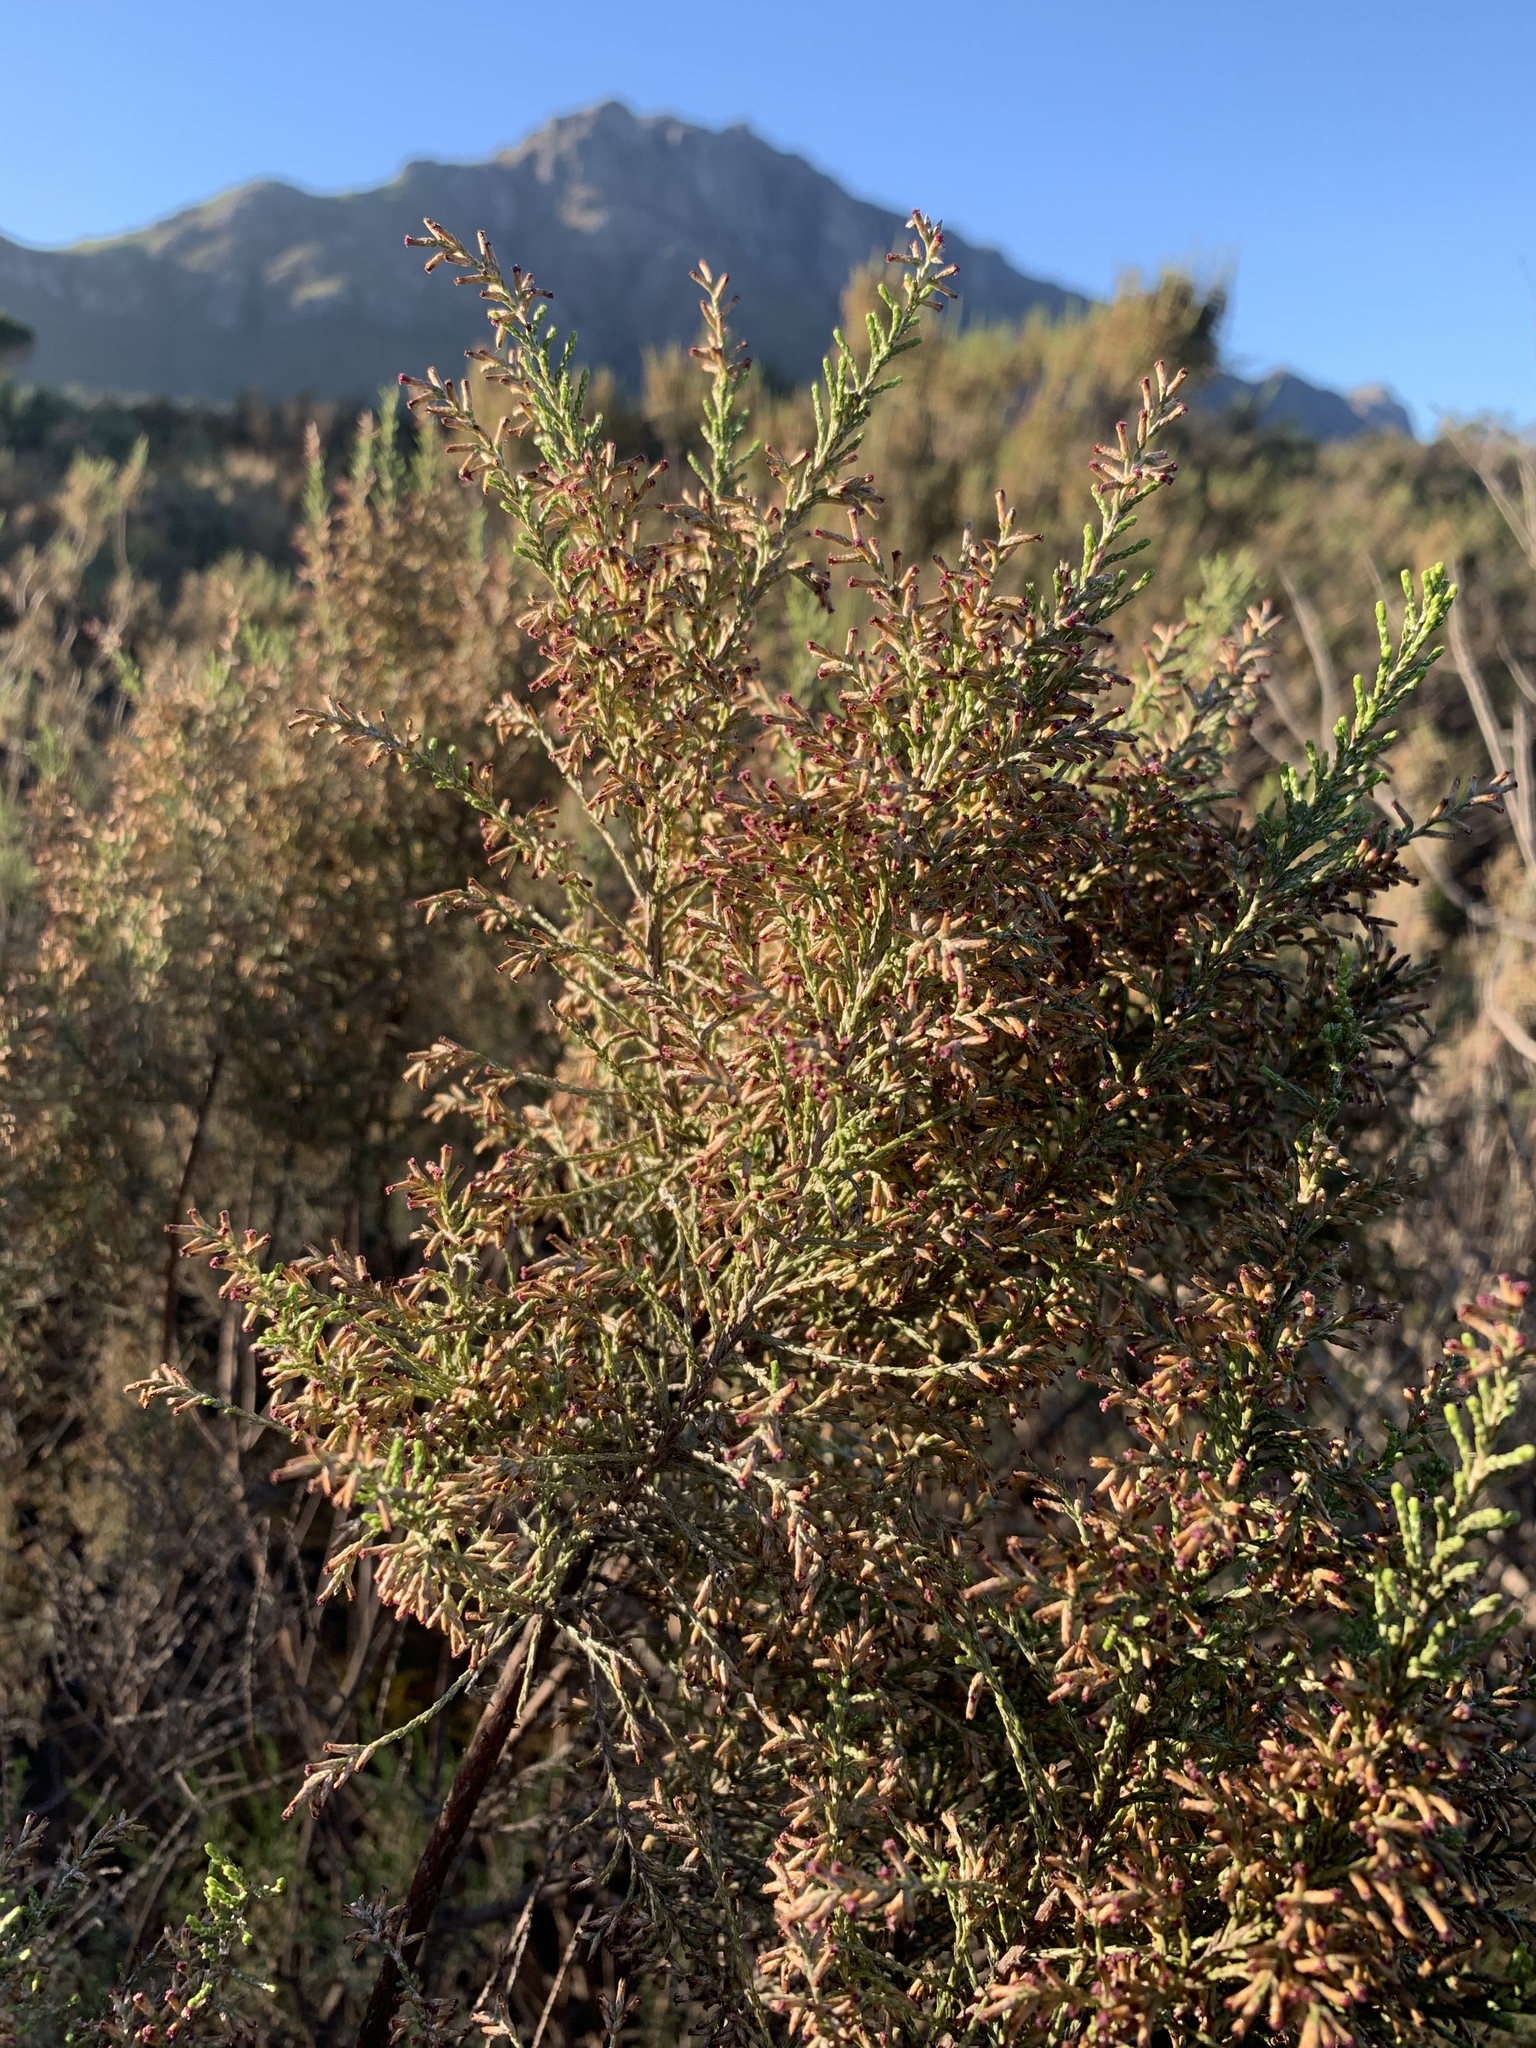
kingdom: Plantae
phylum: Tracheophyta
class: Magnoliopsida
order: Asterales
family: Asteraceae
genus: Dicerothamnus
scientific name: Dicerothamnus rhinocerotis
